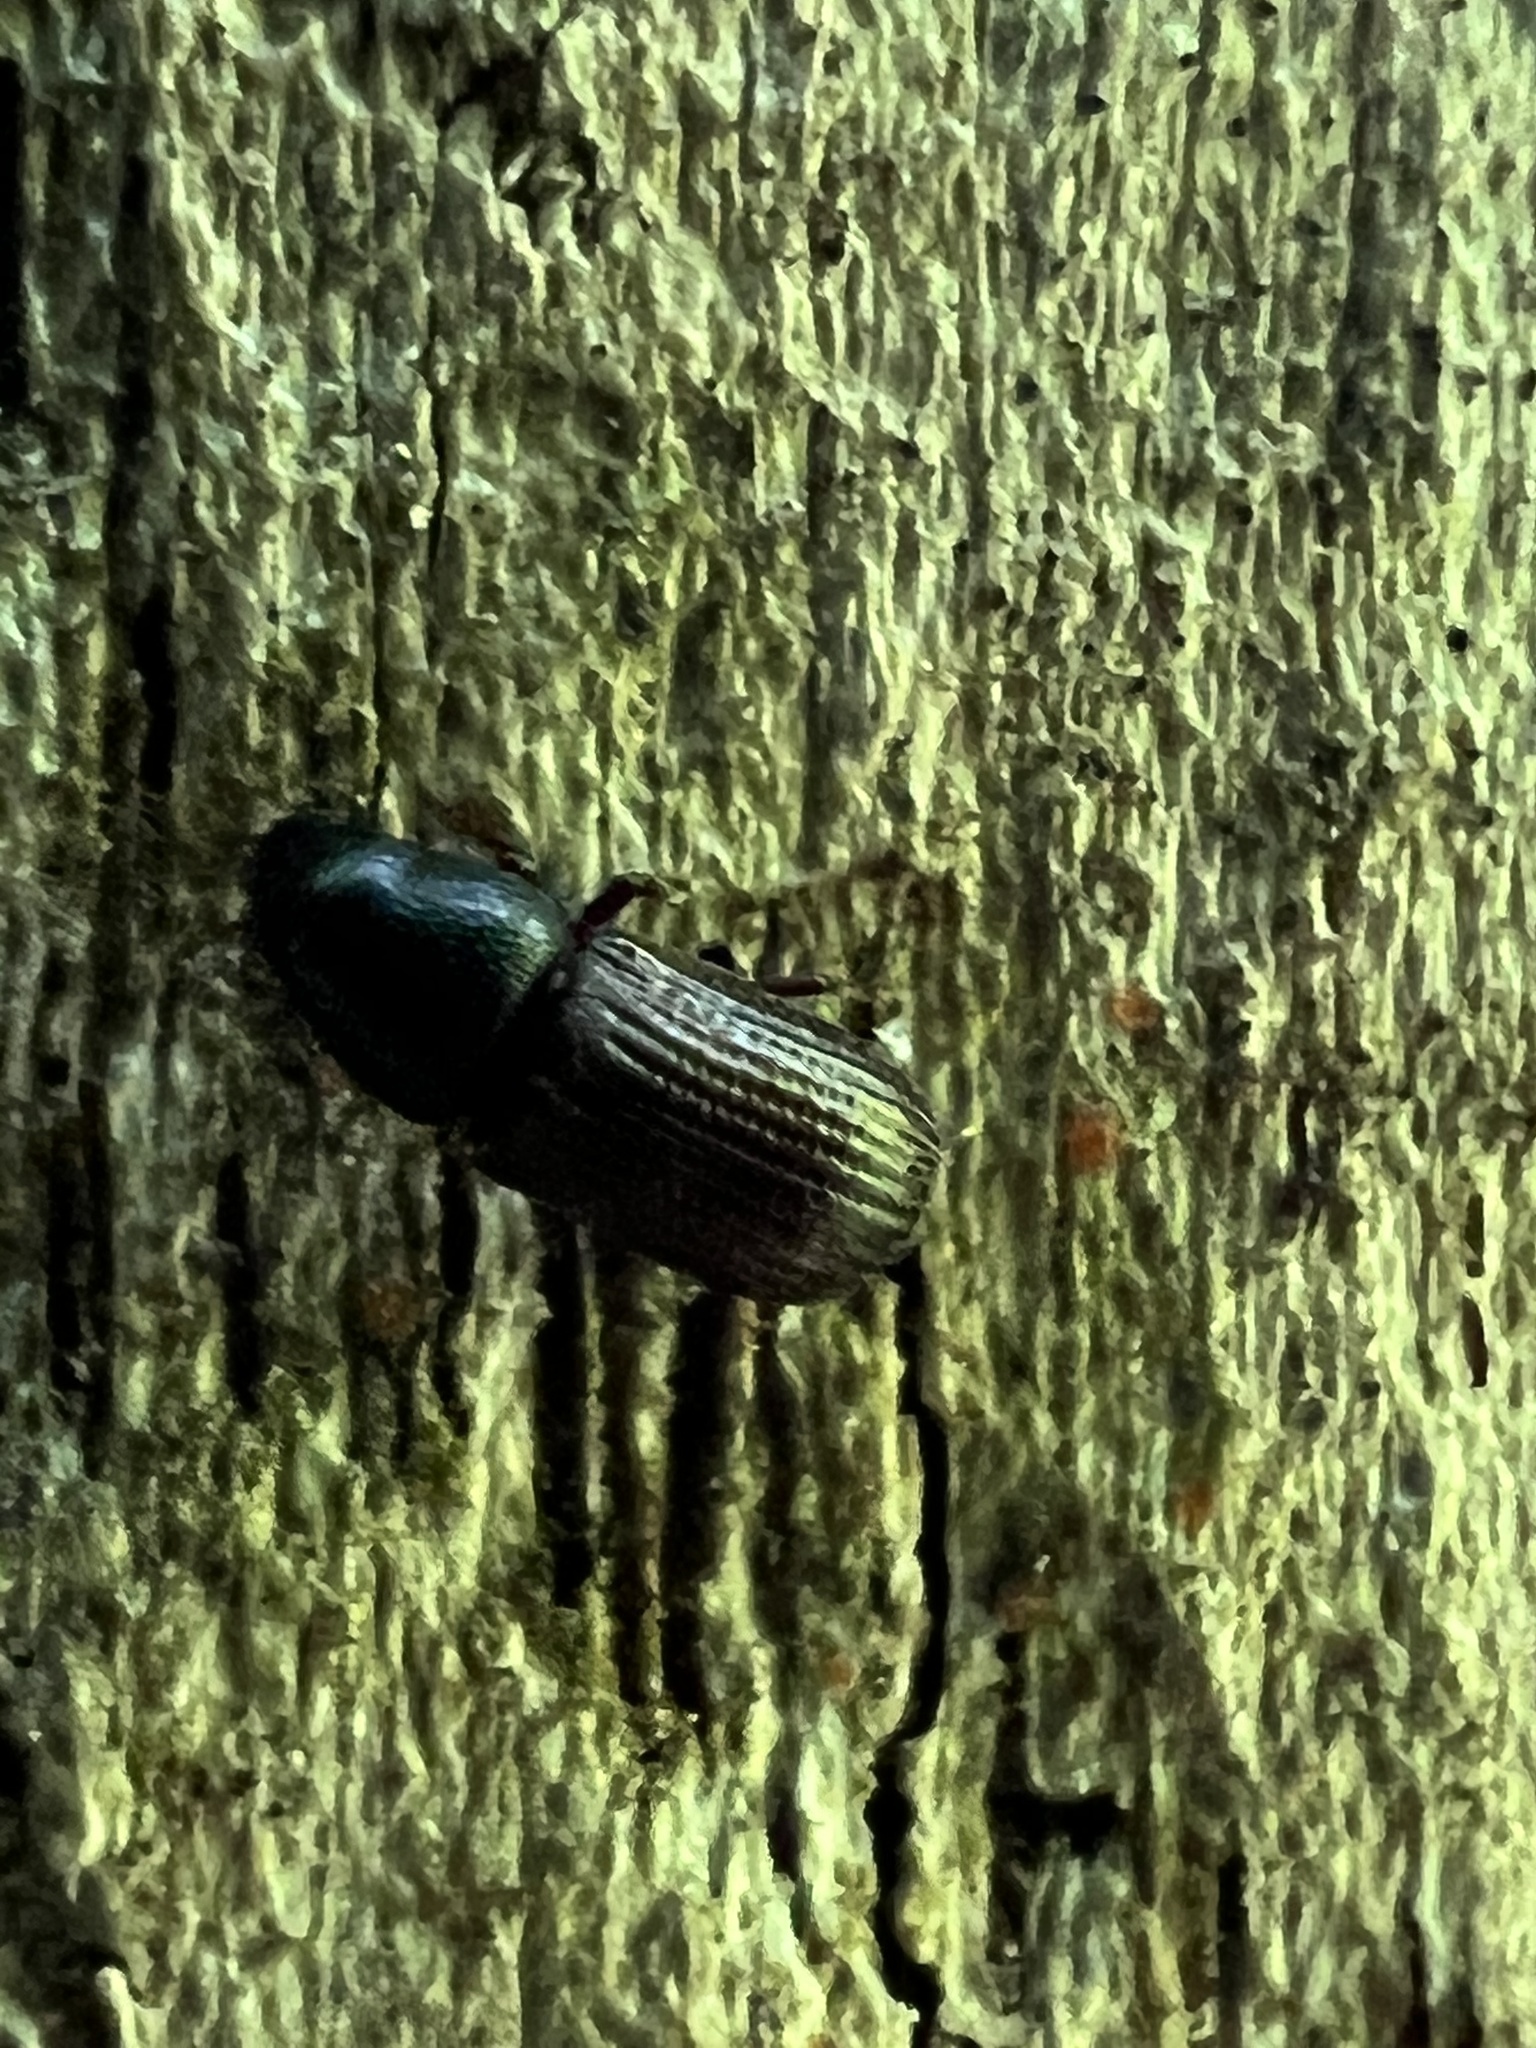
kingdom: Animalia
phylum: Arthropoda
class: Insecta
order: Coleoptera
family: Curculionidae
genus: Stenoscelis
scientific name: Stenoscelis brevis
